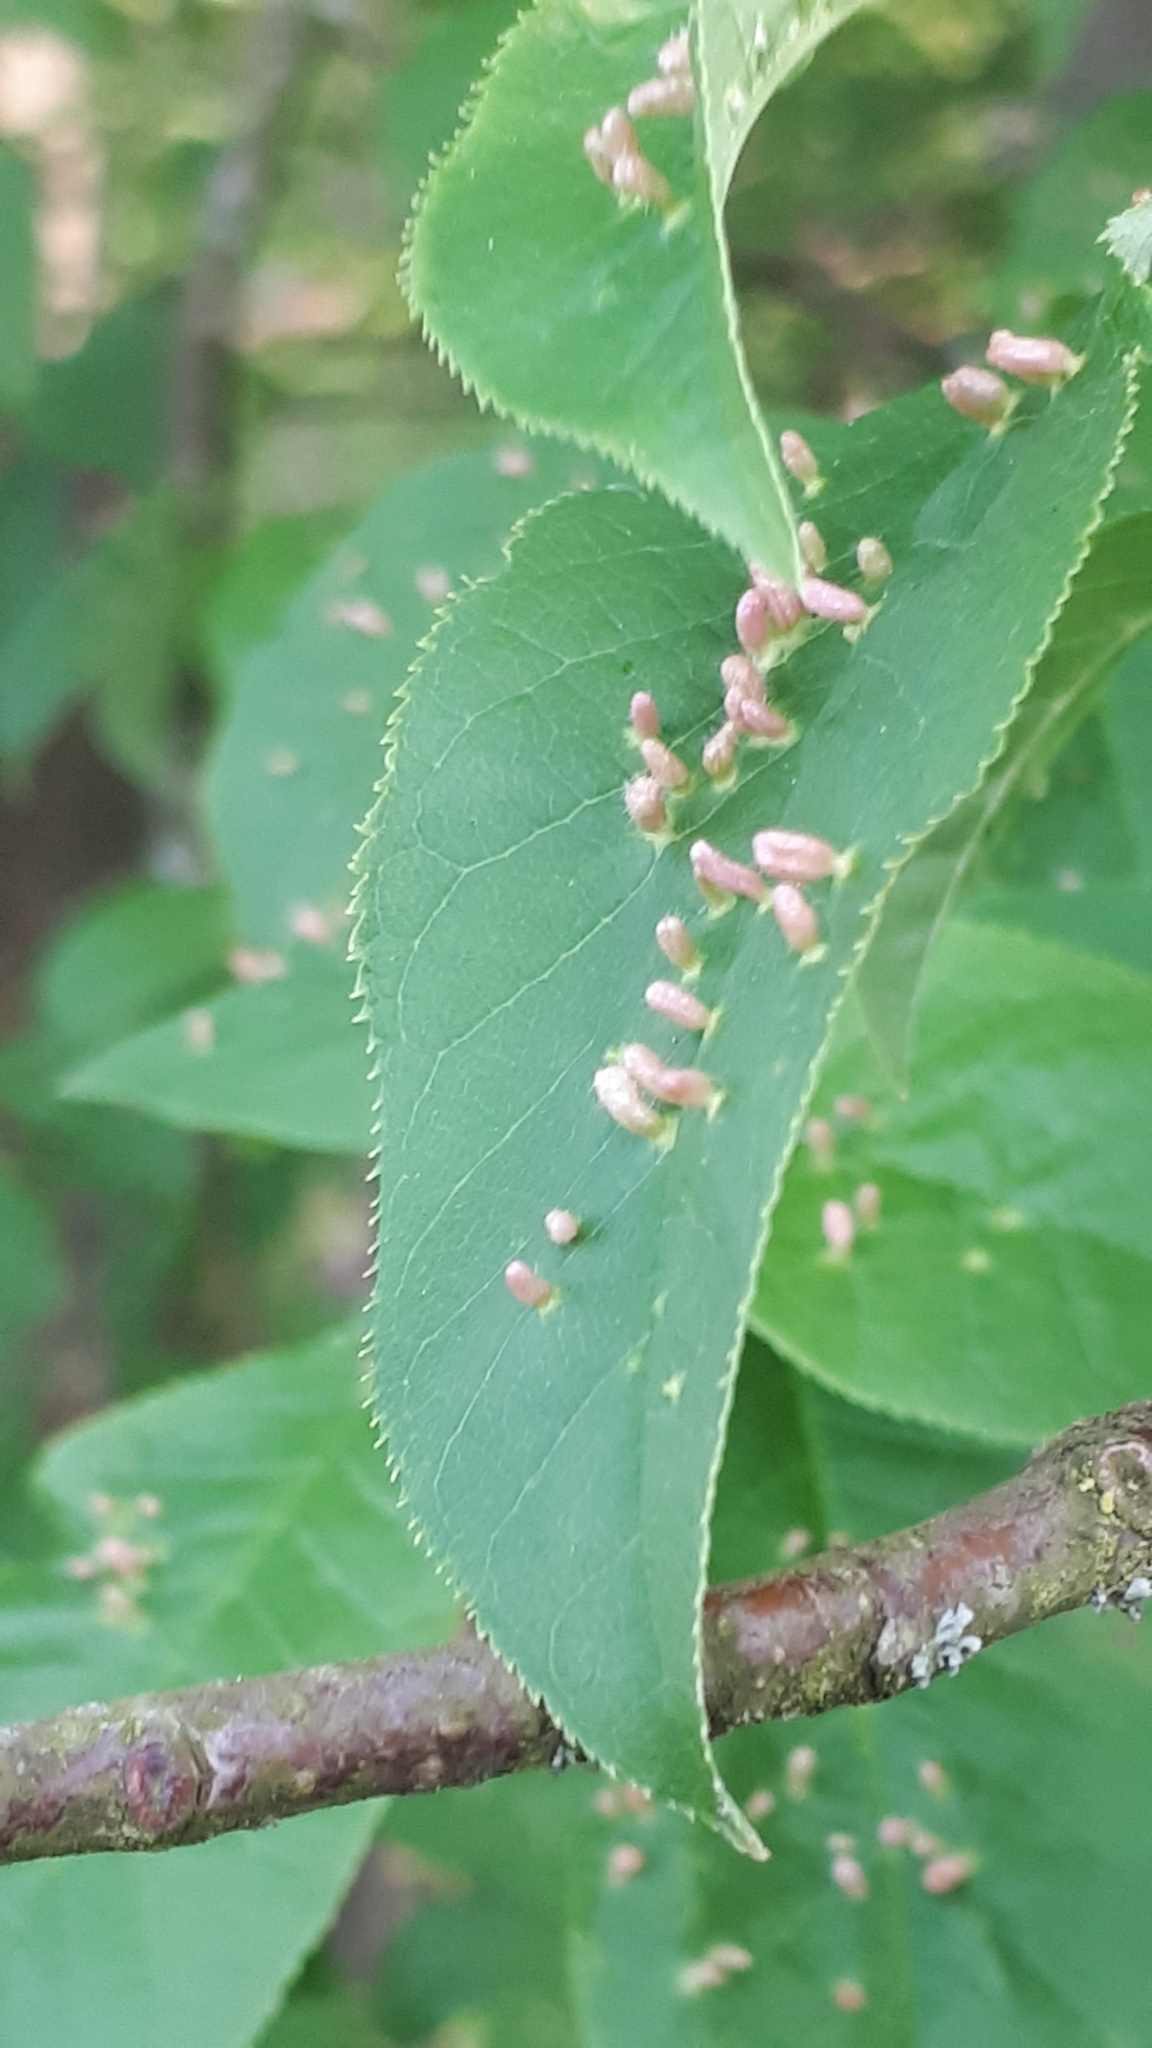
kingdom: Animalia
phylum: Arthropoda
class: Arachnida
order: Trombidiformes
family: Eriophyidae
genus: Phyllocoptes
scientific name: Phyllocoptes eupadi
